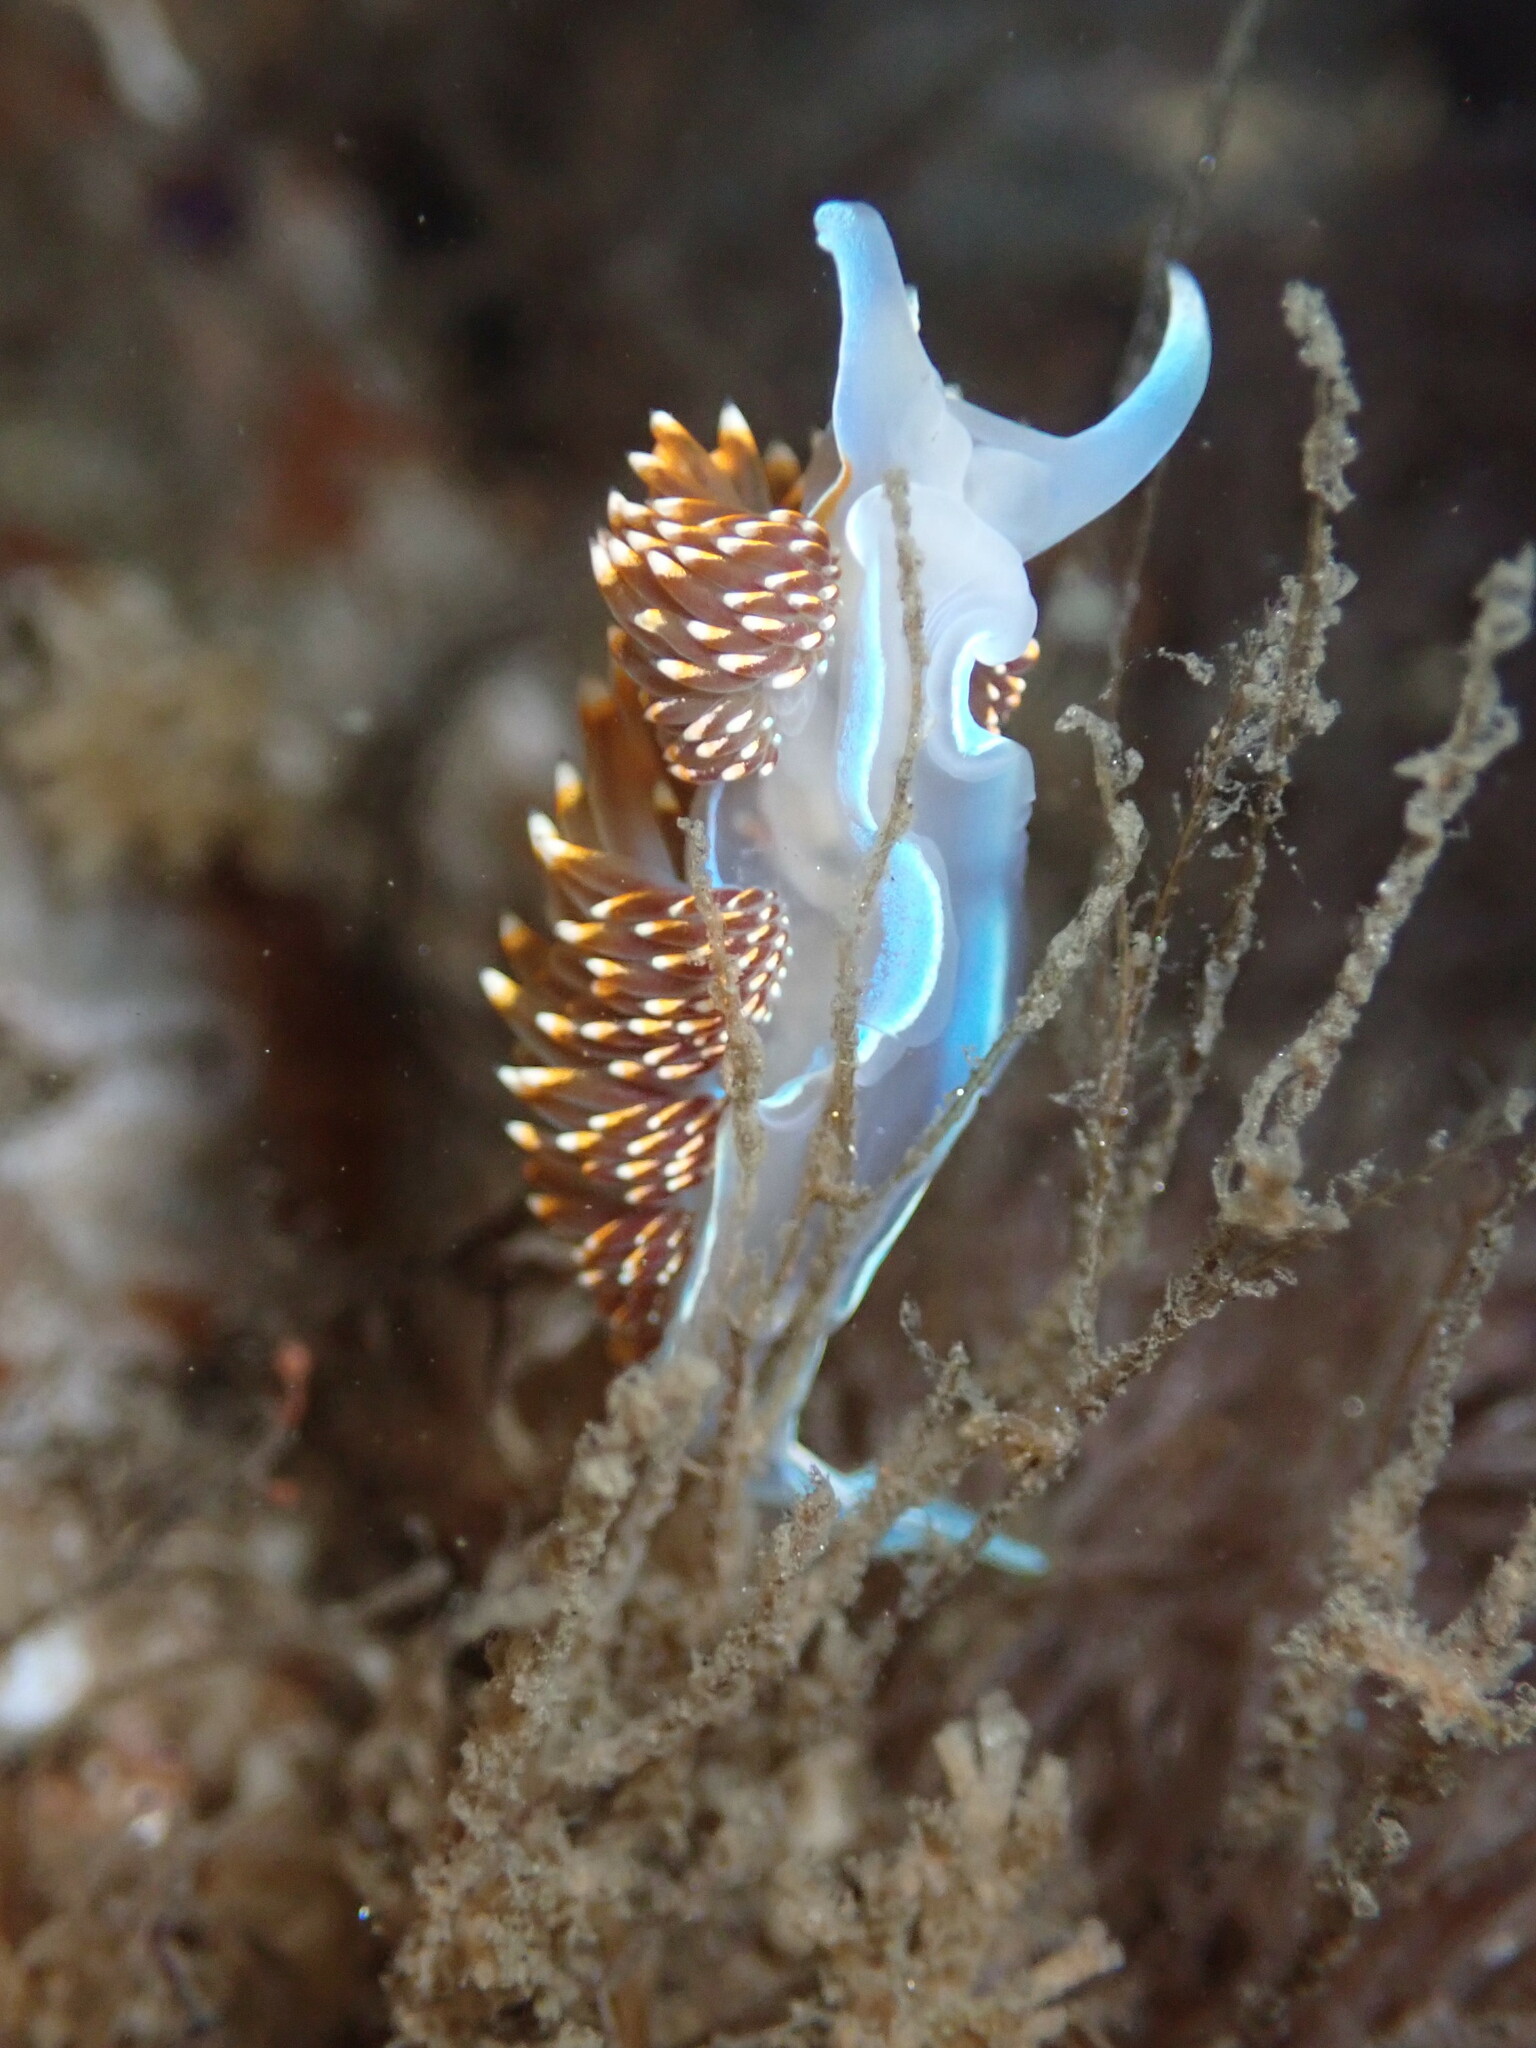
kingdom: Animalia
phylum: Mollusca
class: Gastropoda
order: Nudibranchia
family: Myrrhinidae
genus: Hermissenda
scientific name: Hermissenda opalescens
